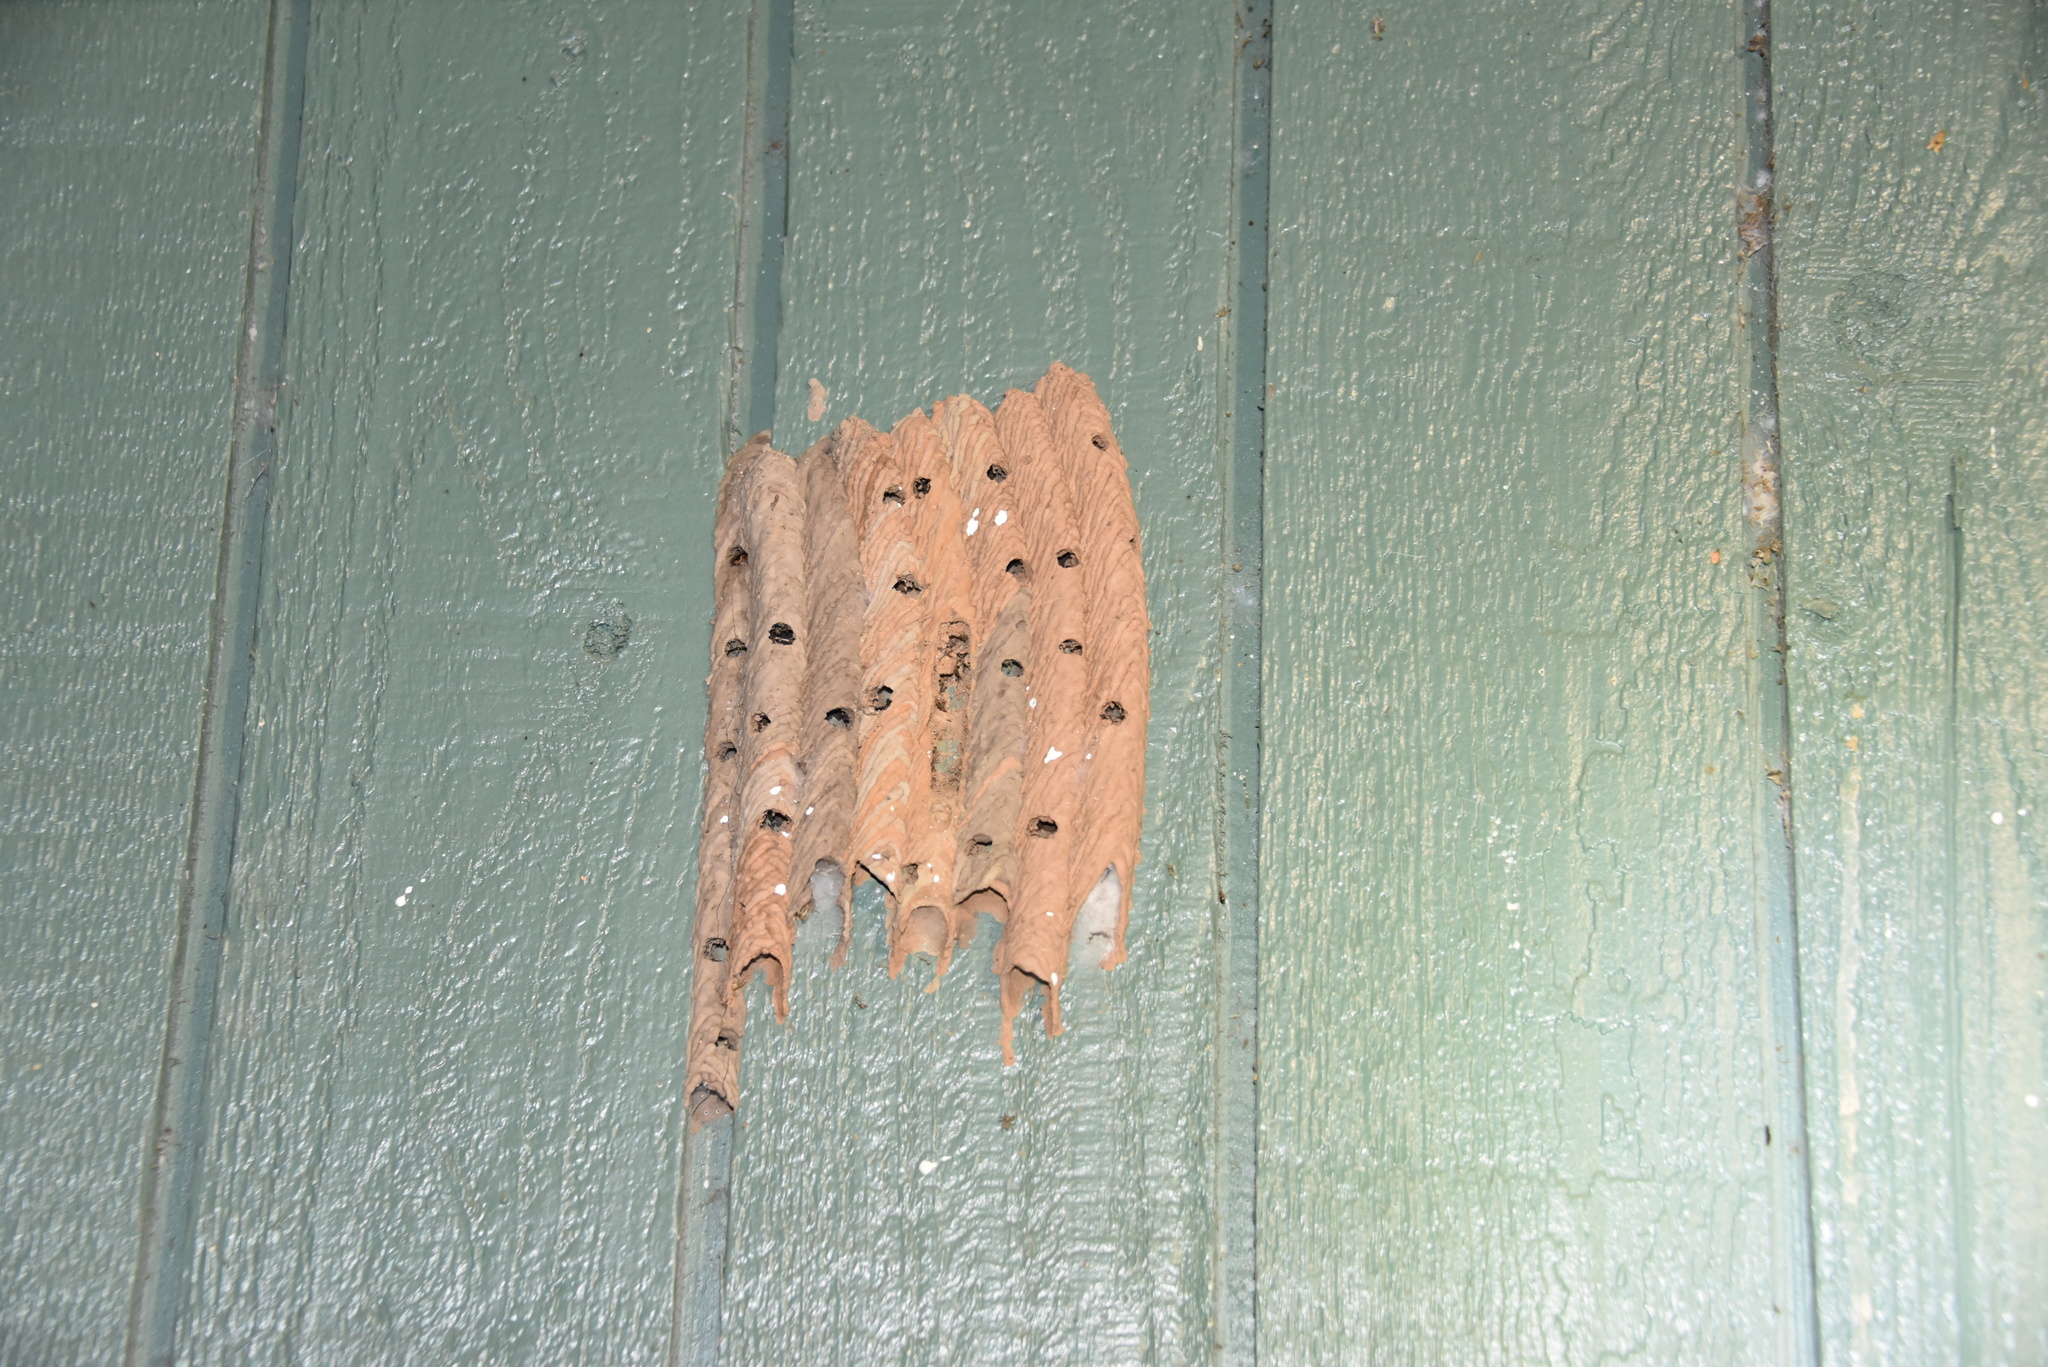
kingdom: Animalia
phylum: Arthropoda
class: Insecta
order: Hymenoptera
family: Crabronidae
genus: Trypoxylon
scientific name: Trypoxylon politum
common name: Organ-pipe mud-dauber wasp
